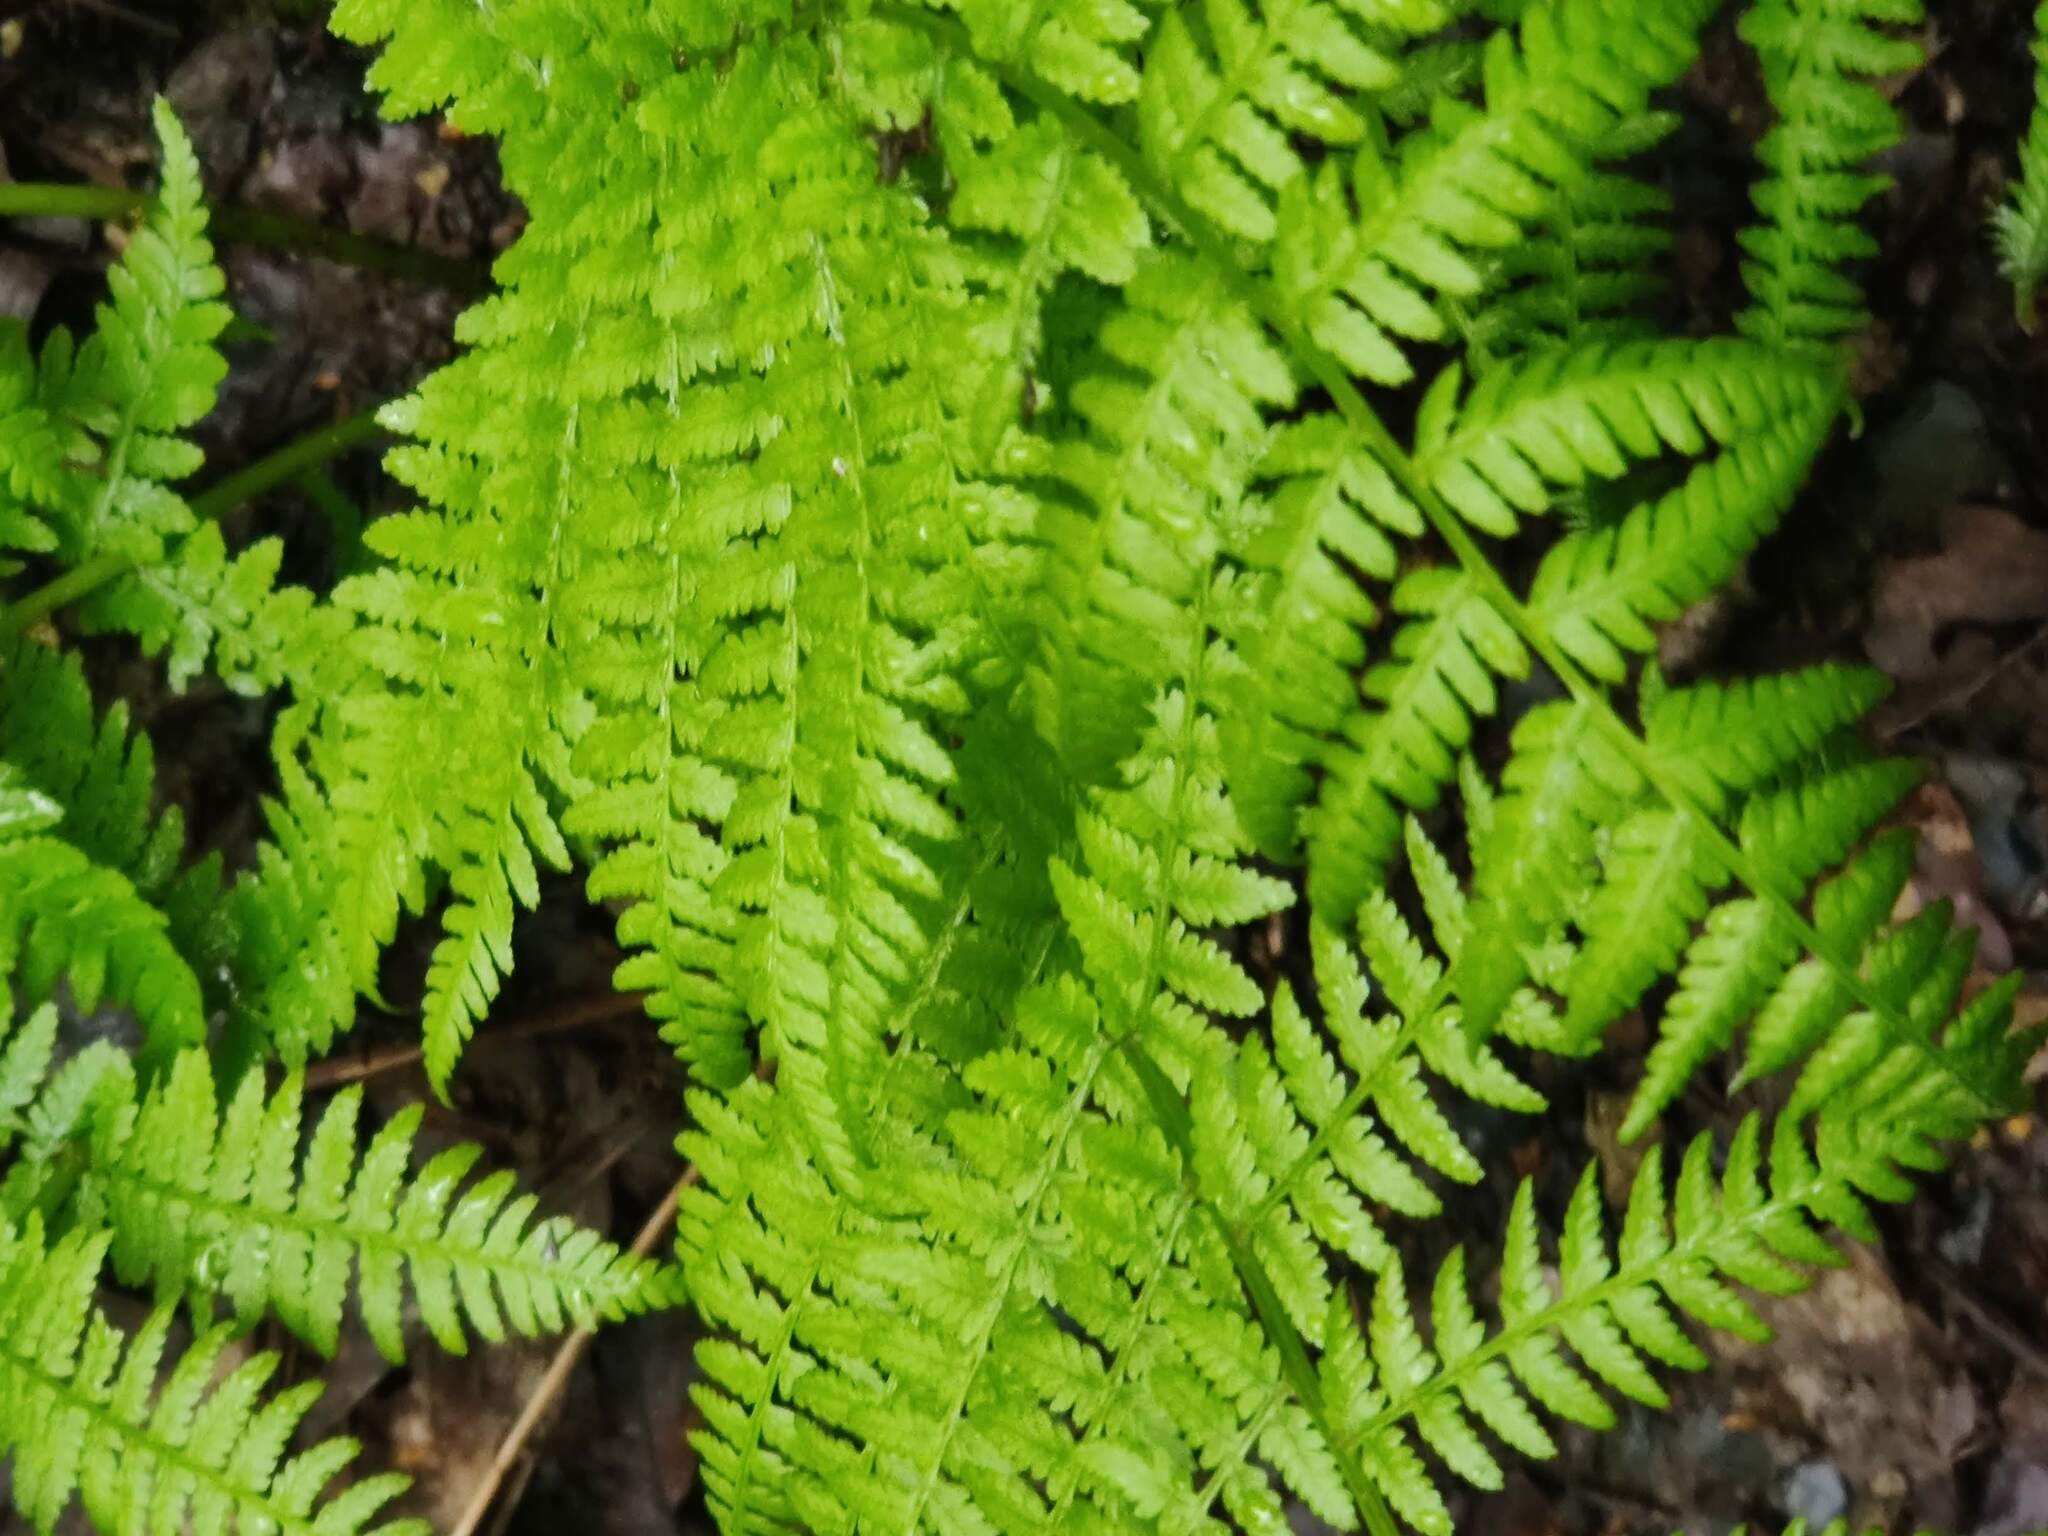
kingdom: Plantae
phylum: Tracheophyta
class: Polypodiopsida
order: Polypodiales
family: Athyriaceae
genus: Athyrium
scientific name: Athyrium filix-femina
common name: Lady fern
